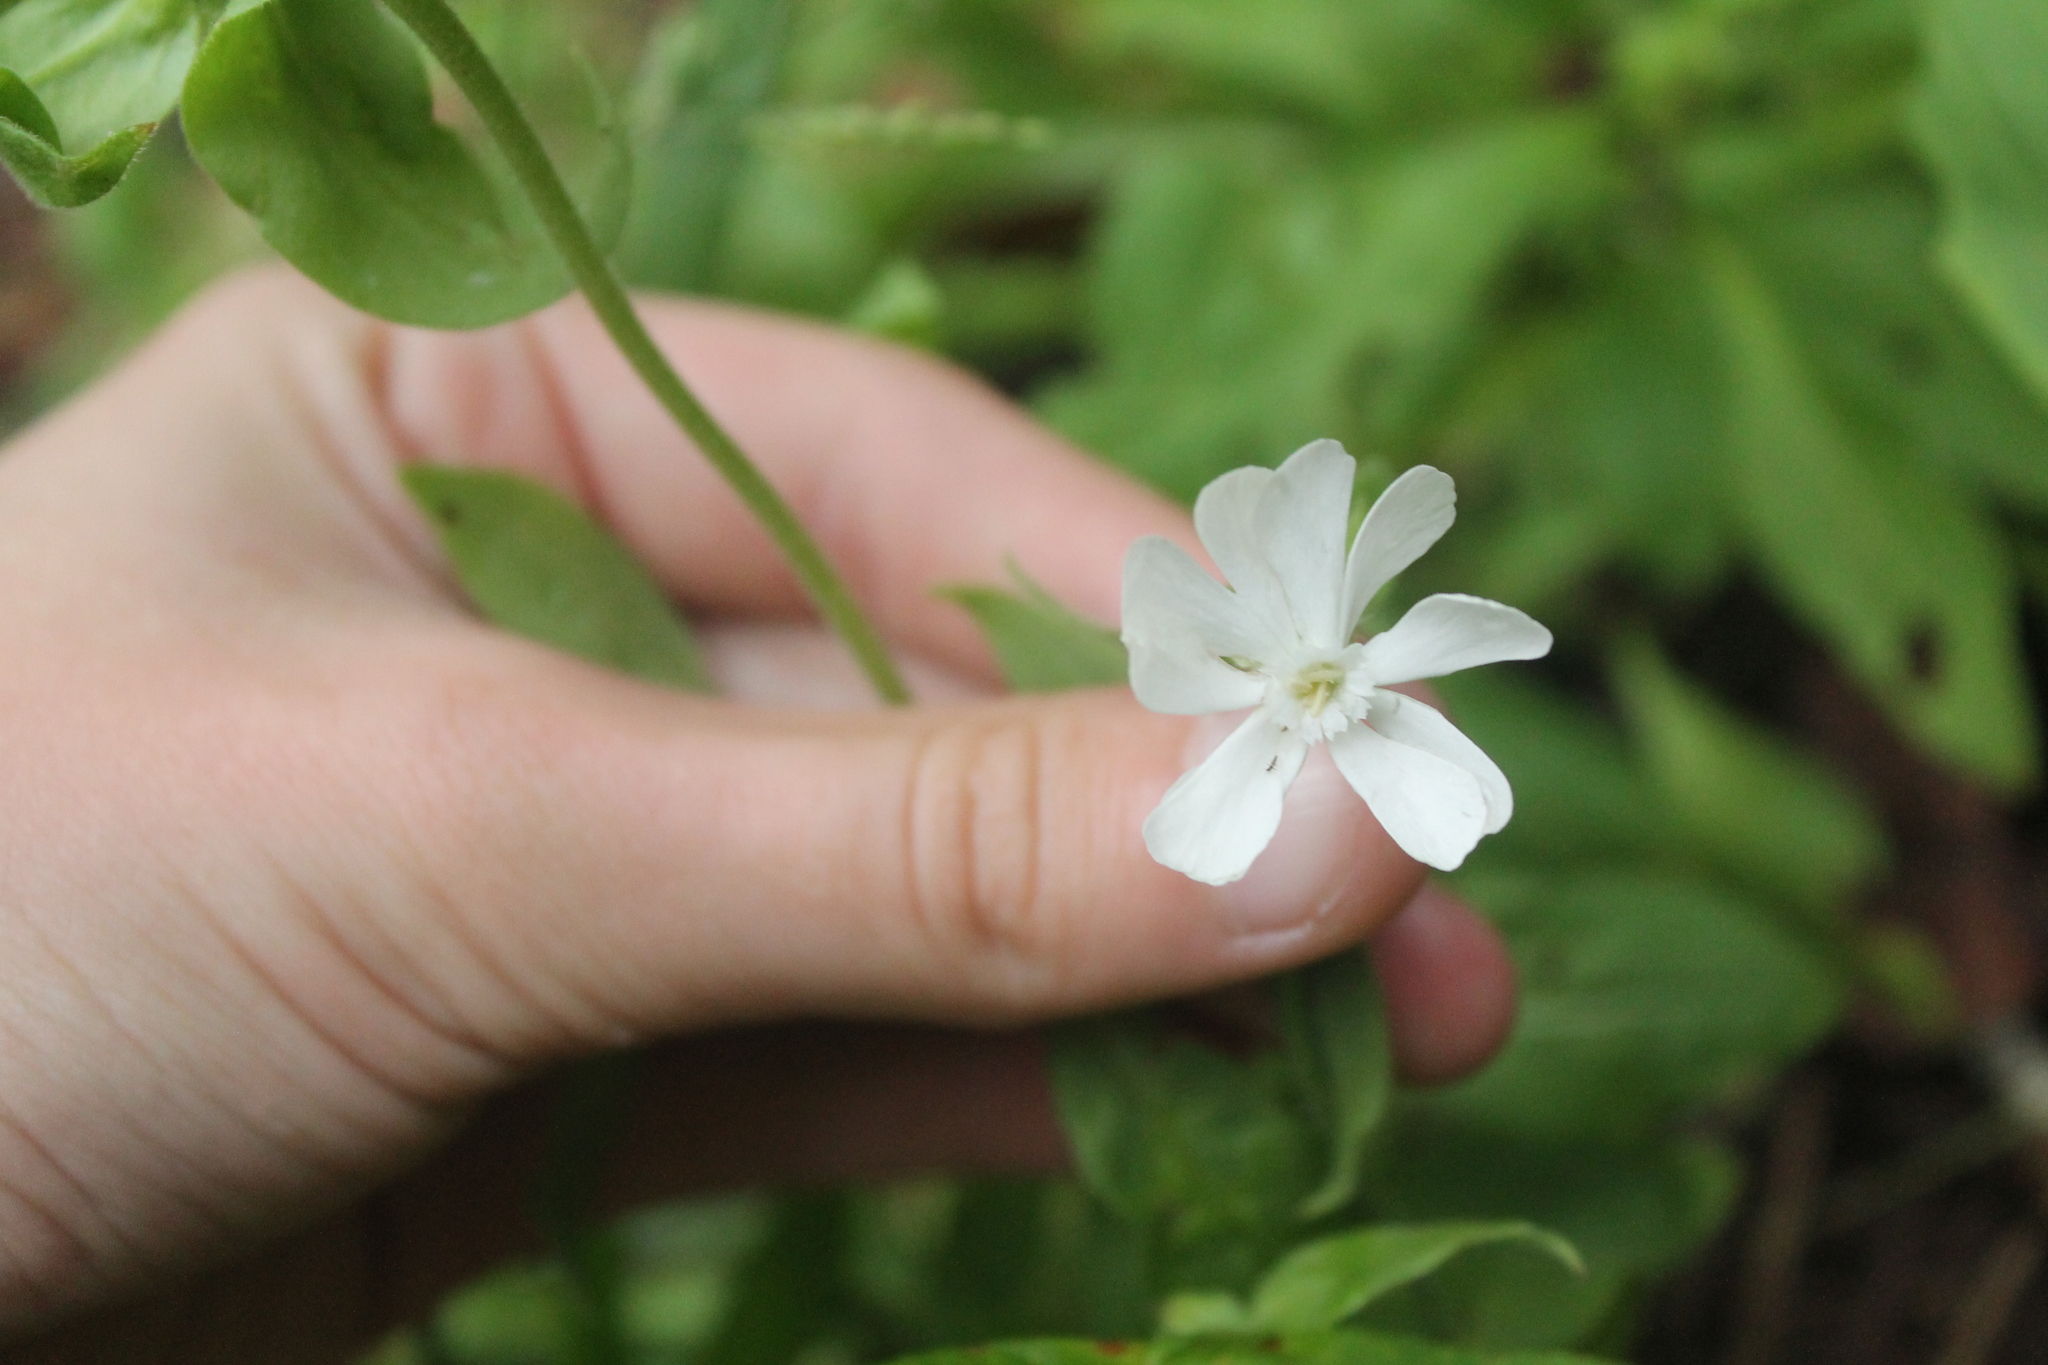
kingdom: Plantae
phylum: Tracheophyta
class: Magnoliopsida
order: Caryophyllales
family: Caryophyllaceae
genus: Silene
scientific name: Silene latifolia
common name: White campion
